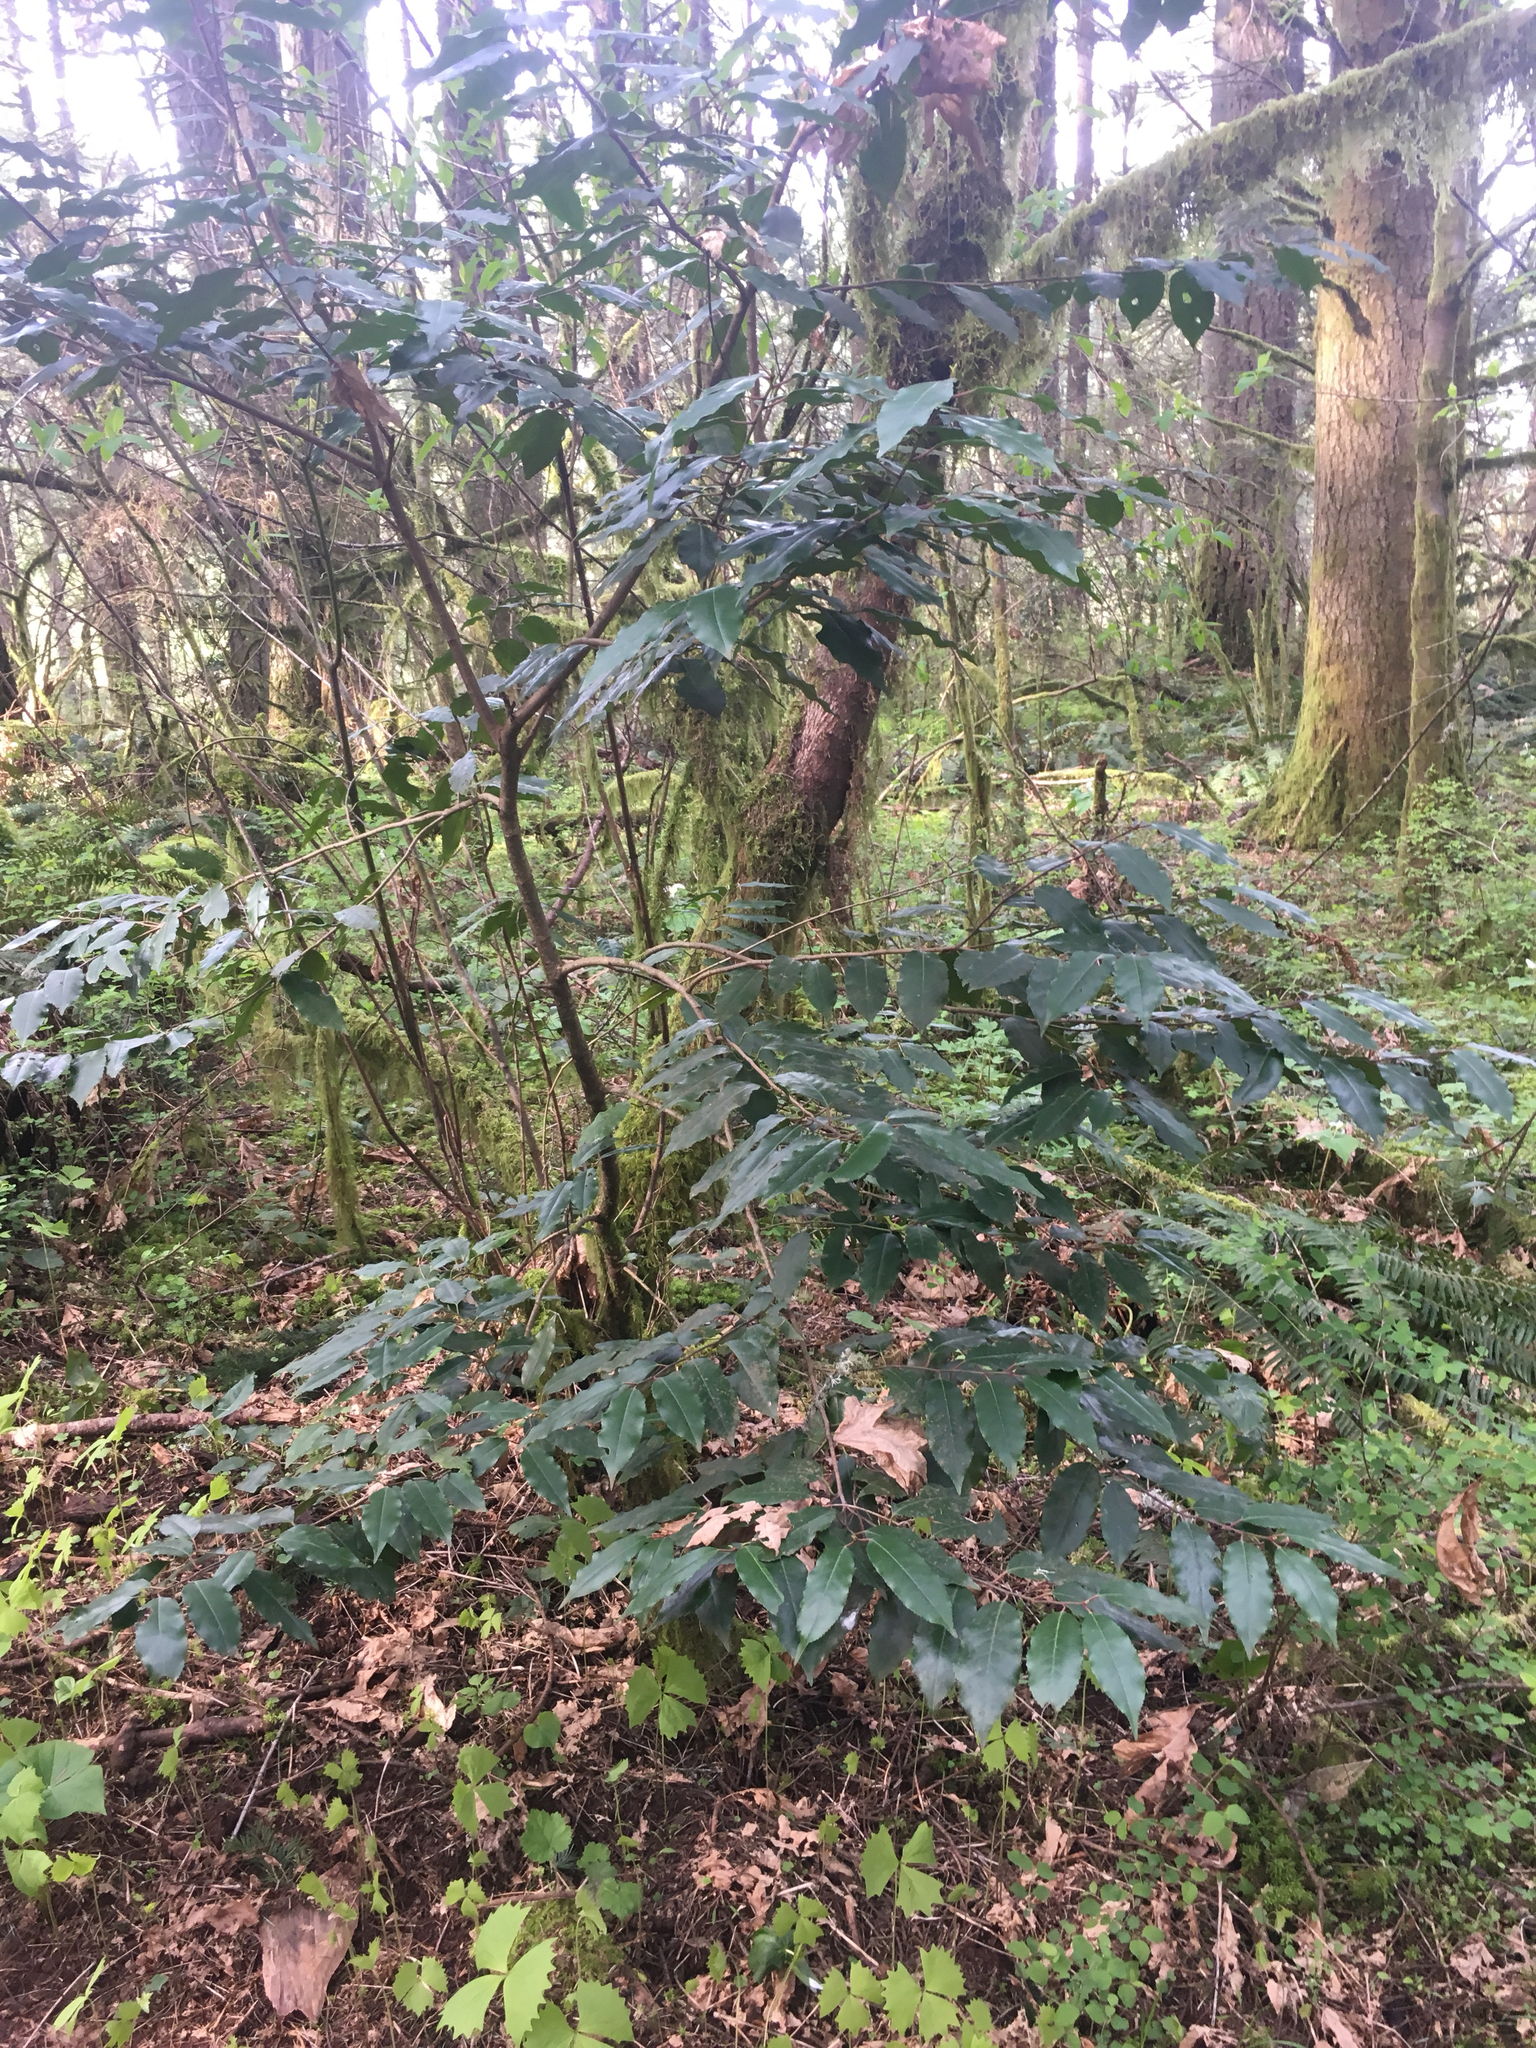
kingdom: Plantae
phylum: Tracheophyta
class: Magnoliopsida
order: Rosales
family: Rosaceae
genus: Prunus
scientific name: Prunus lusitanica
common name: Portugal laurel
